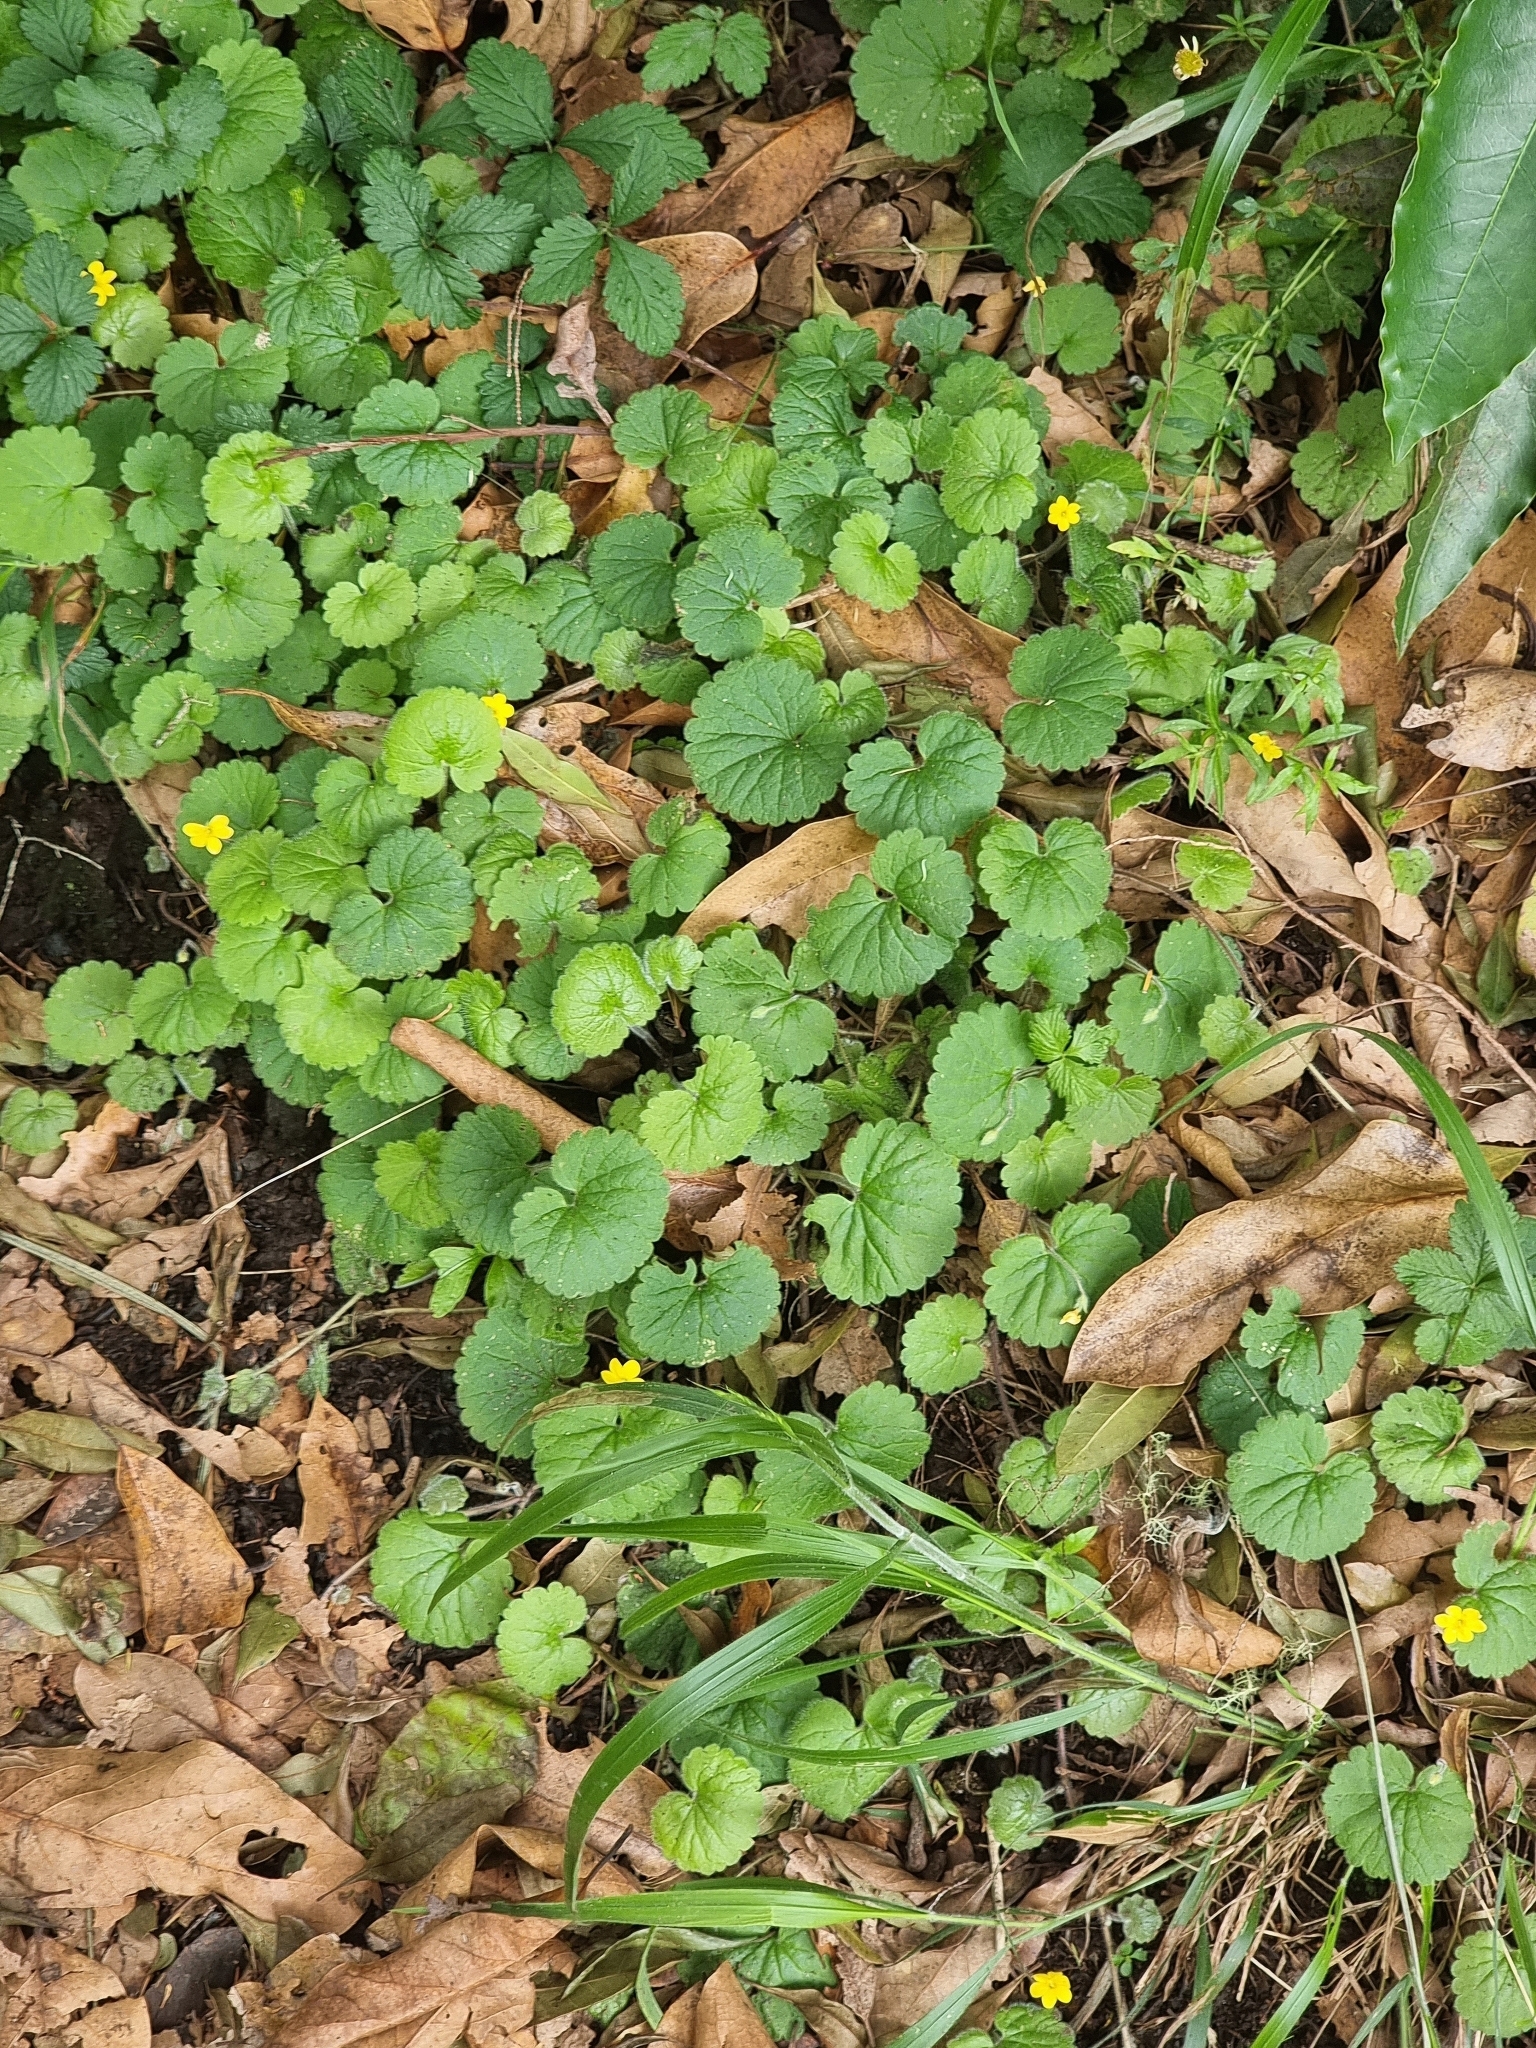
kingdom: Plantae
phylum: Tracheophyta
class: Magnoliopsida
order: Lamiales
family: Plantaginaceae
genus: Sibthorpia
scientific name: Sibthorpia peregrina
